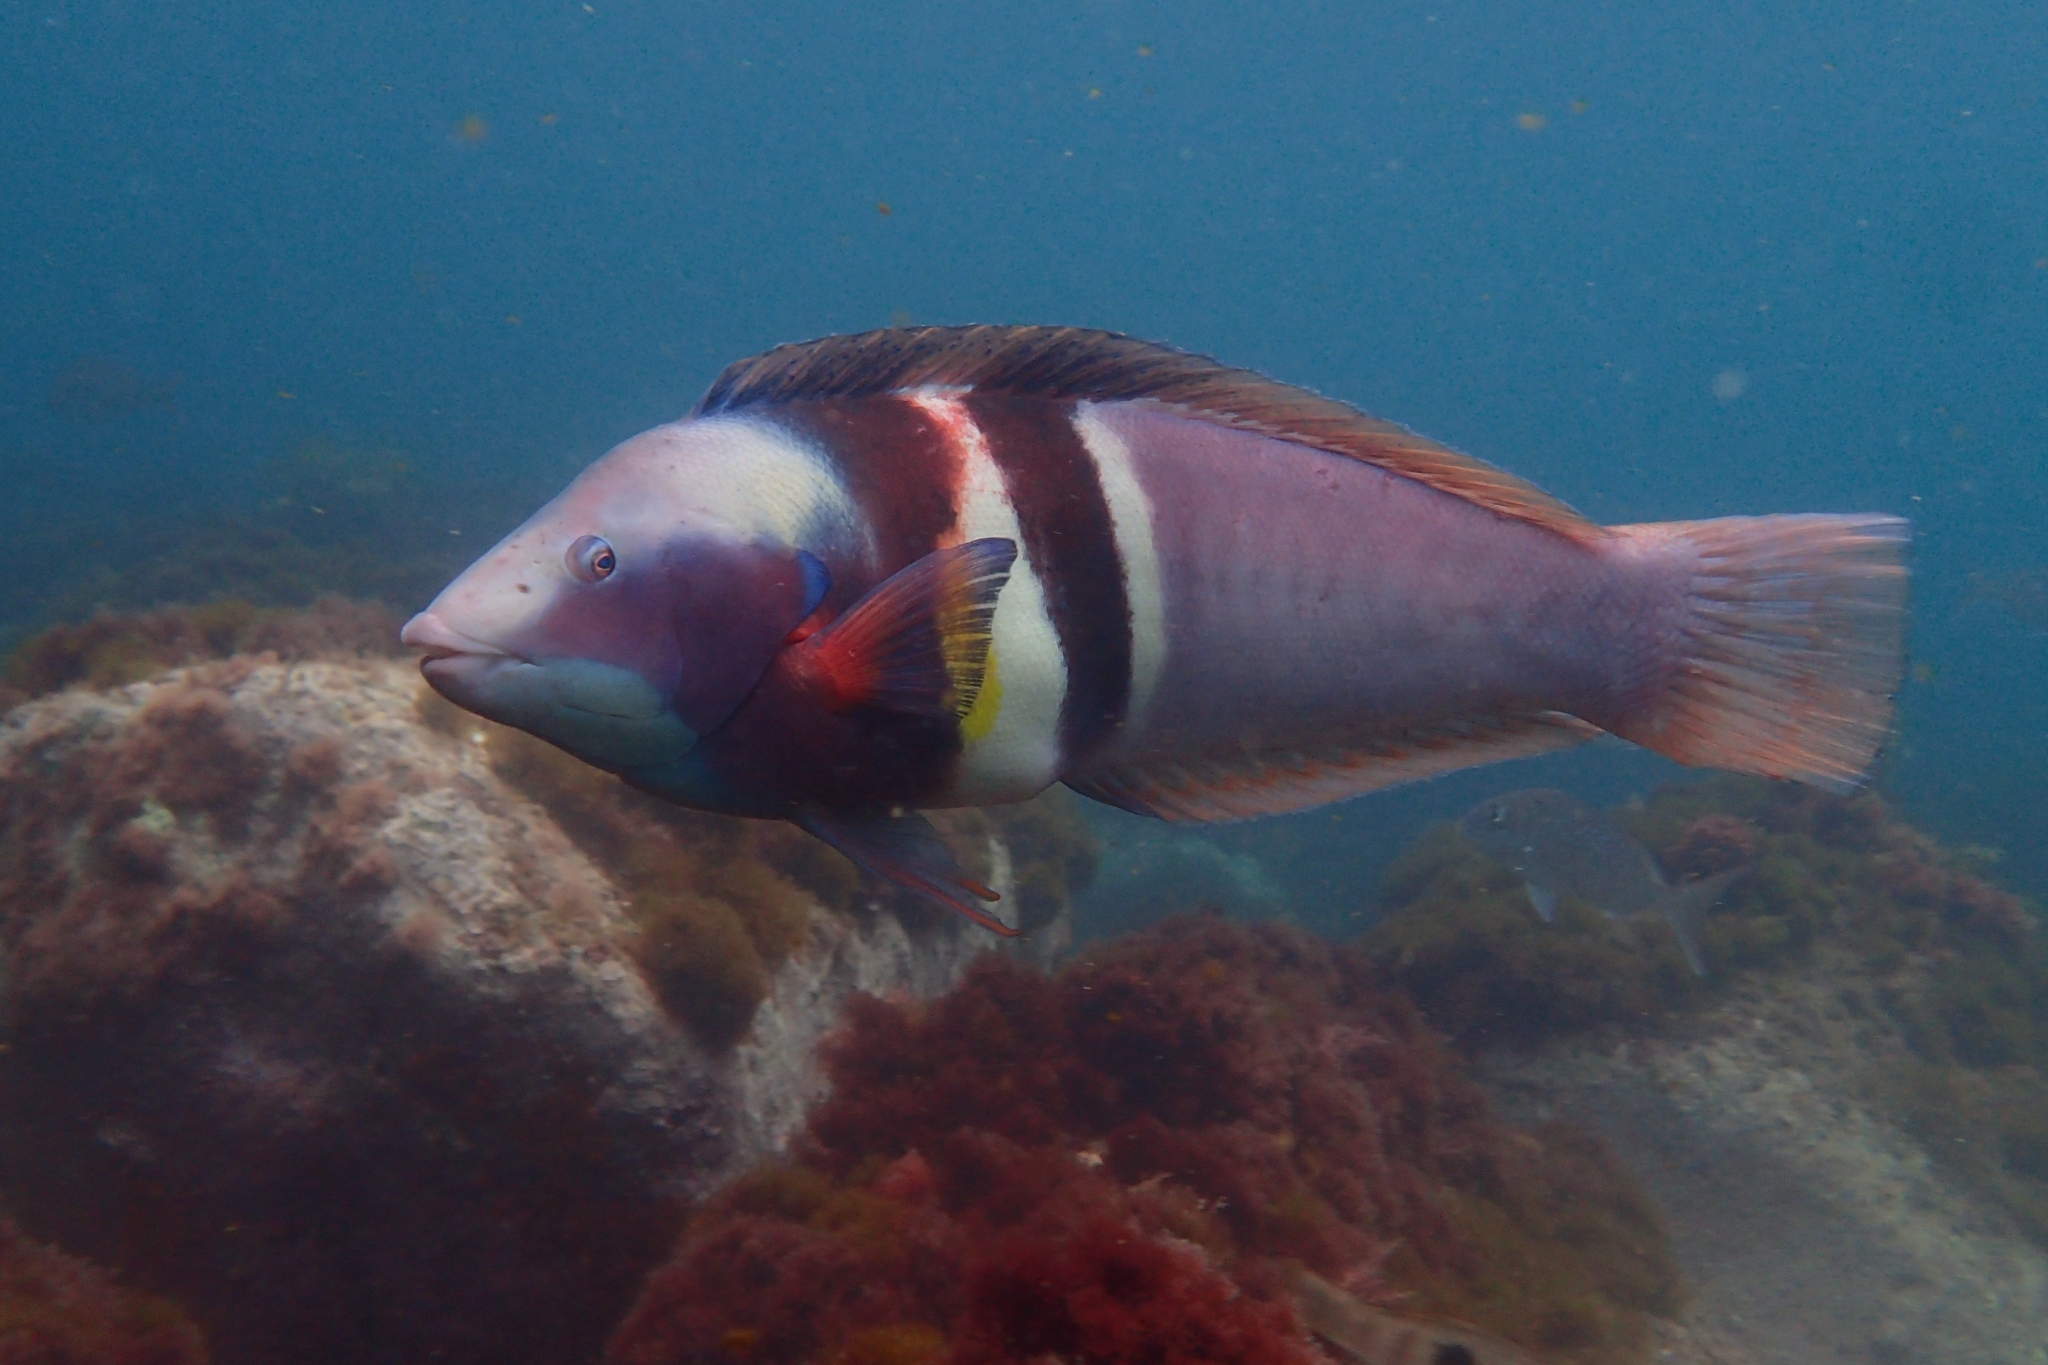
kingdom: Animalia
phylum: Chordata
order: Perciformes
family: Labridae
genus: Coris
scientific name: Coris sandeyeri
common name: Sandager's wrasse
